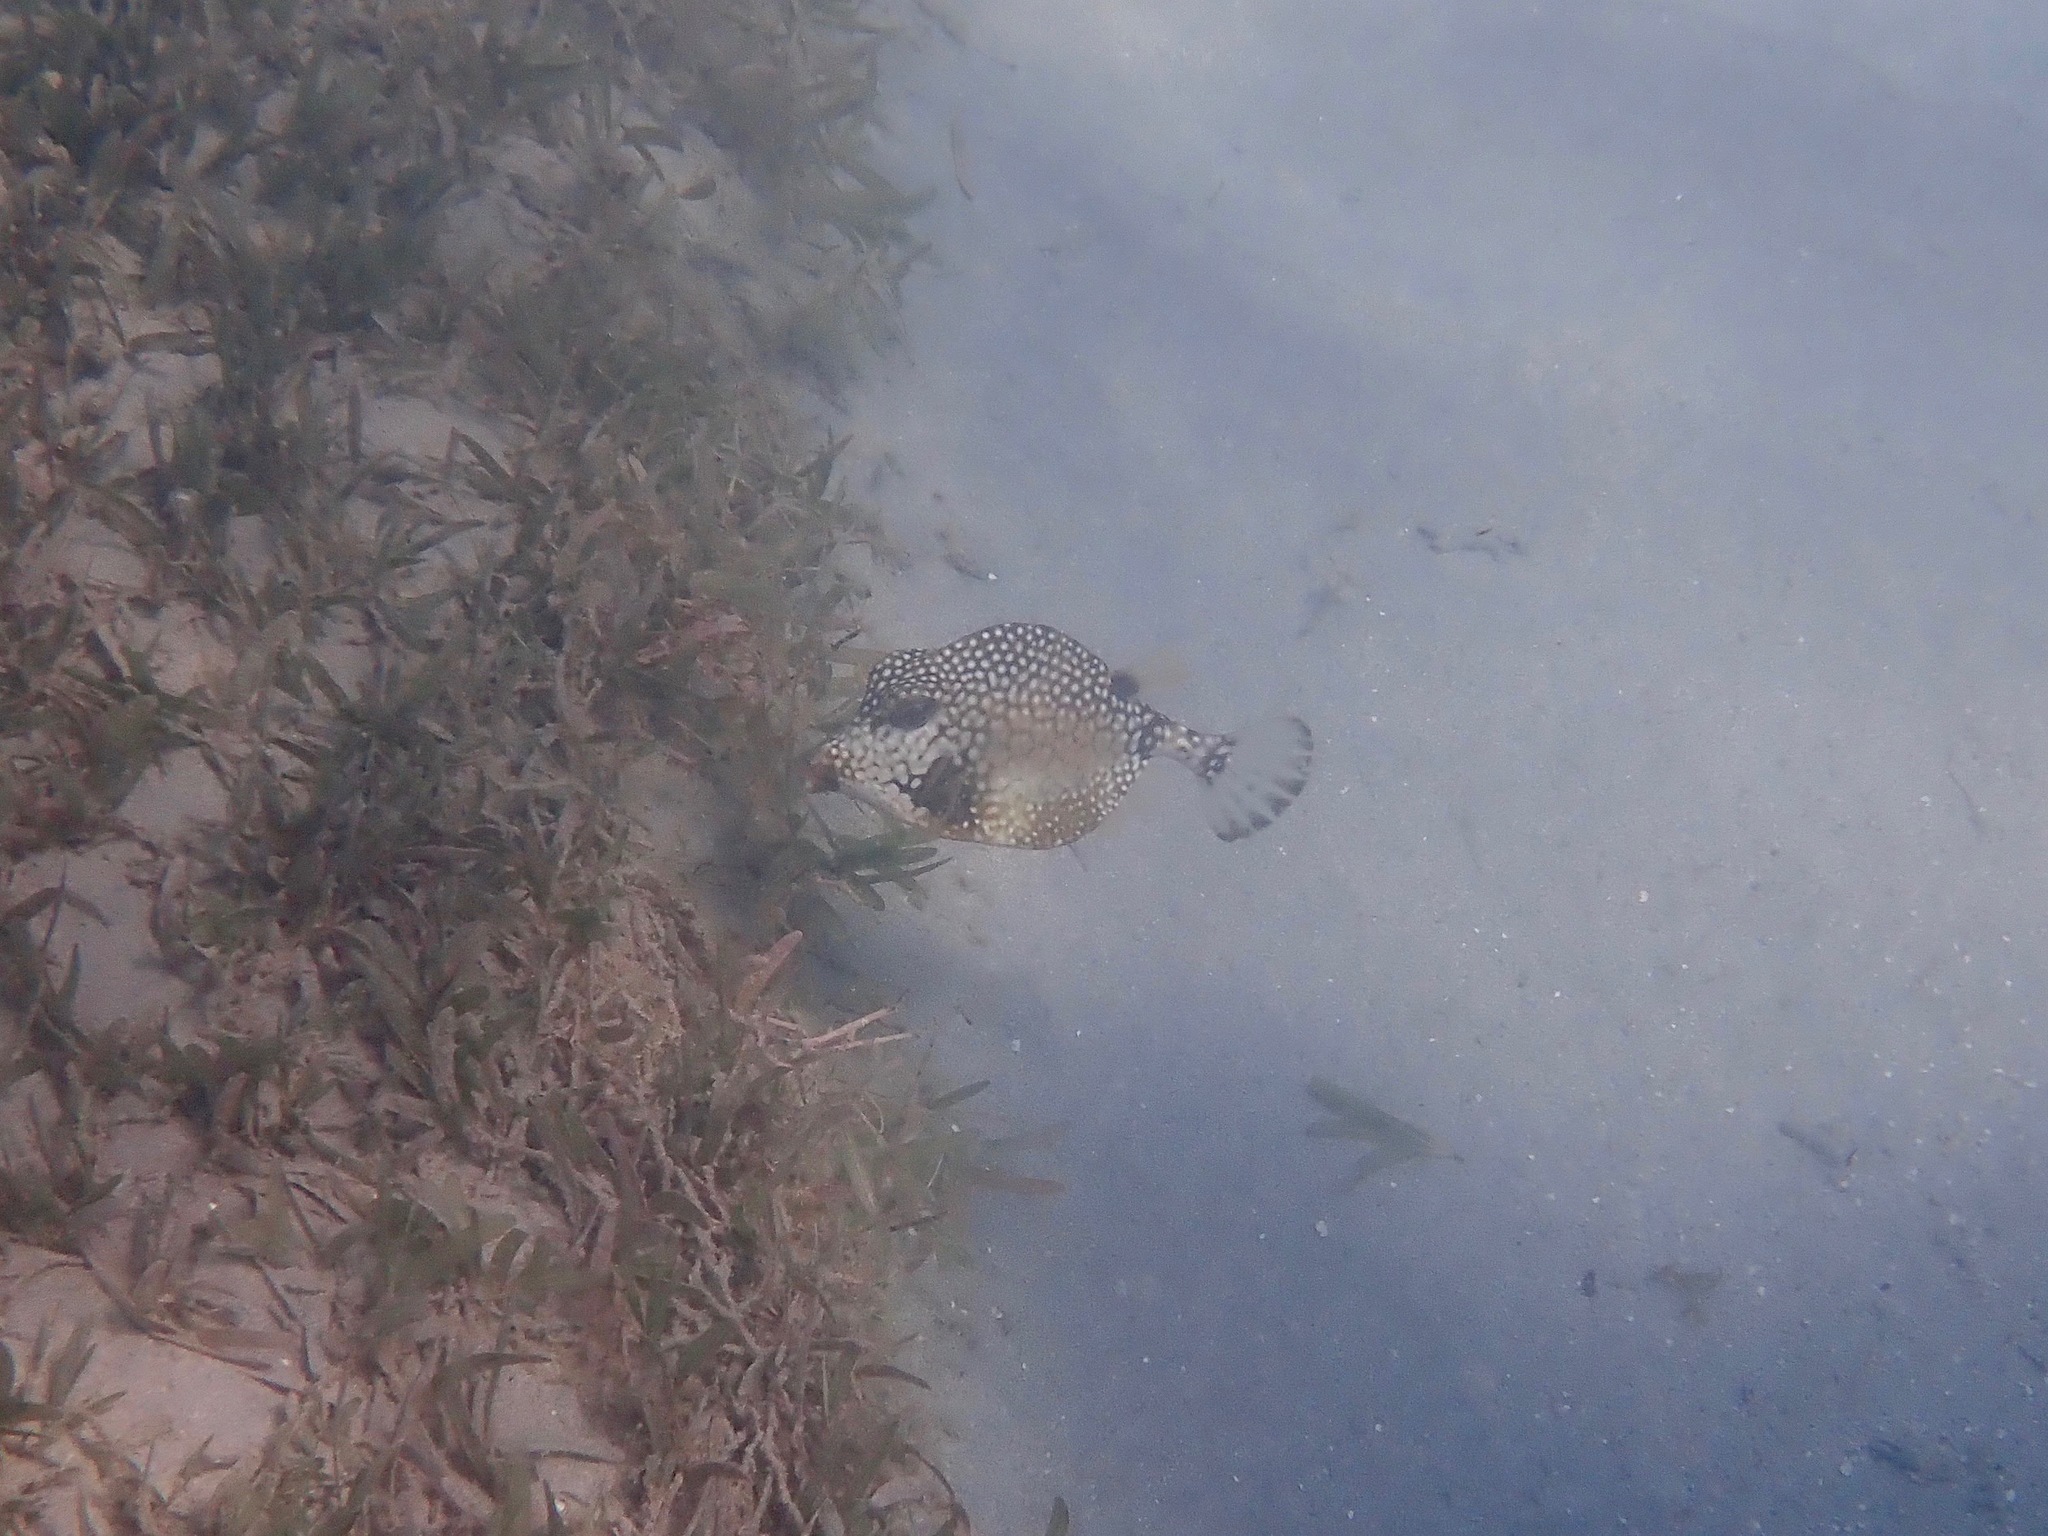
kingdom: Animalia
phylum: Chordata
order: Tetraodontiformes
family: Ostraciidae
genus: Lactophrys
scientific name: Lactophrys triqueter
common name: Smooth trunkfish
